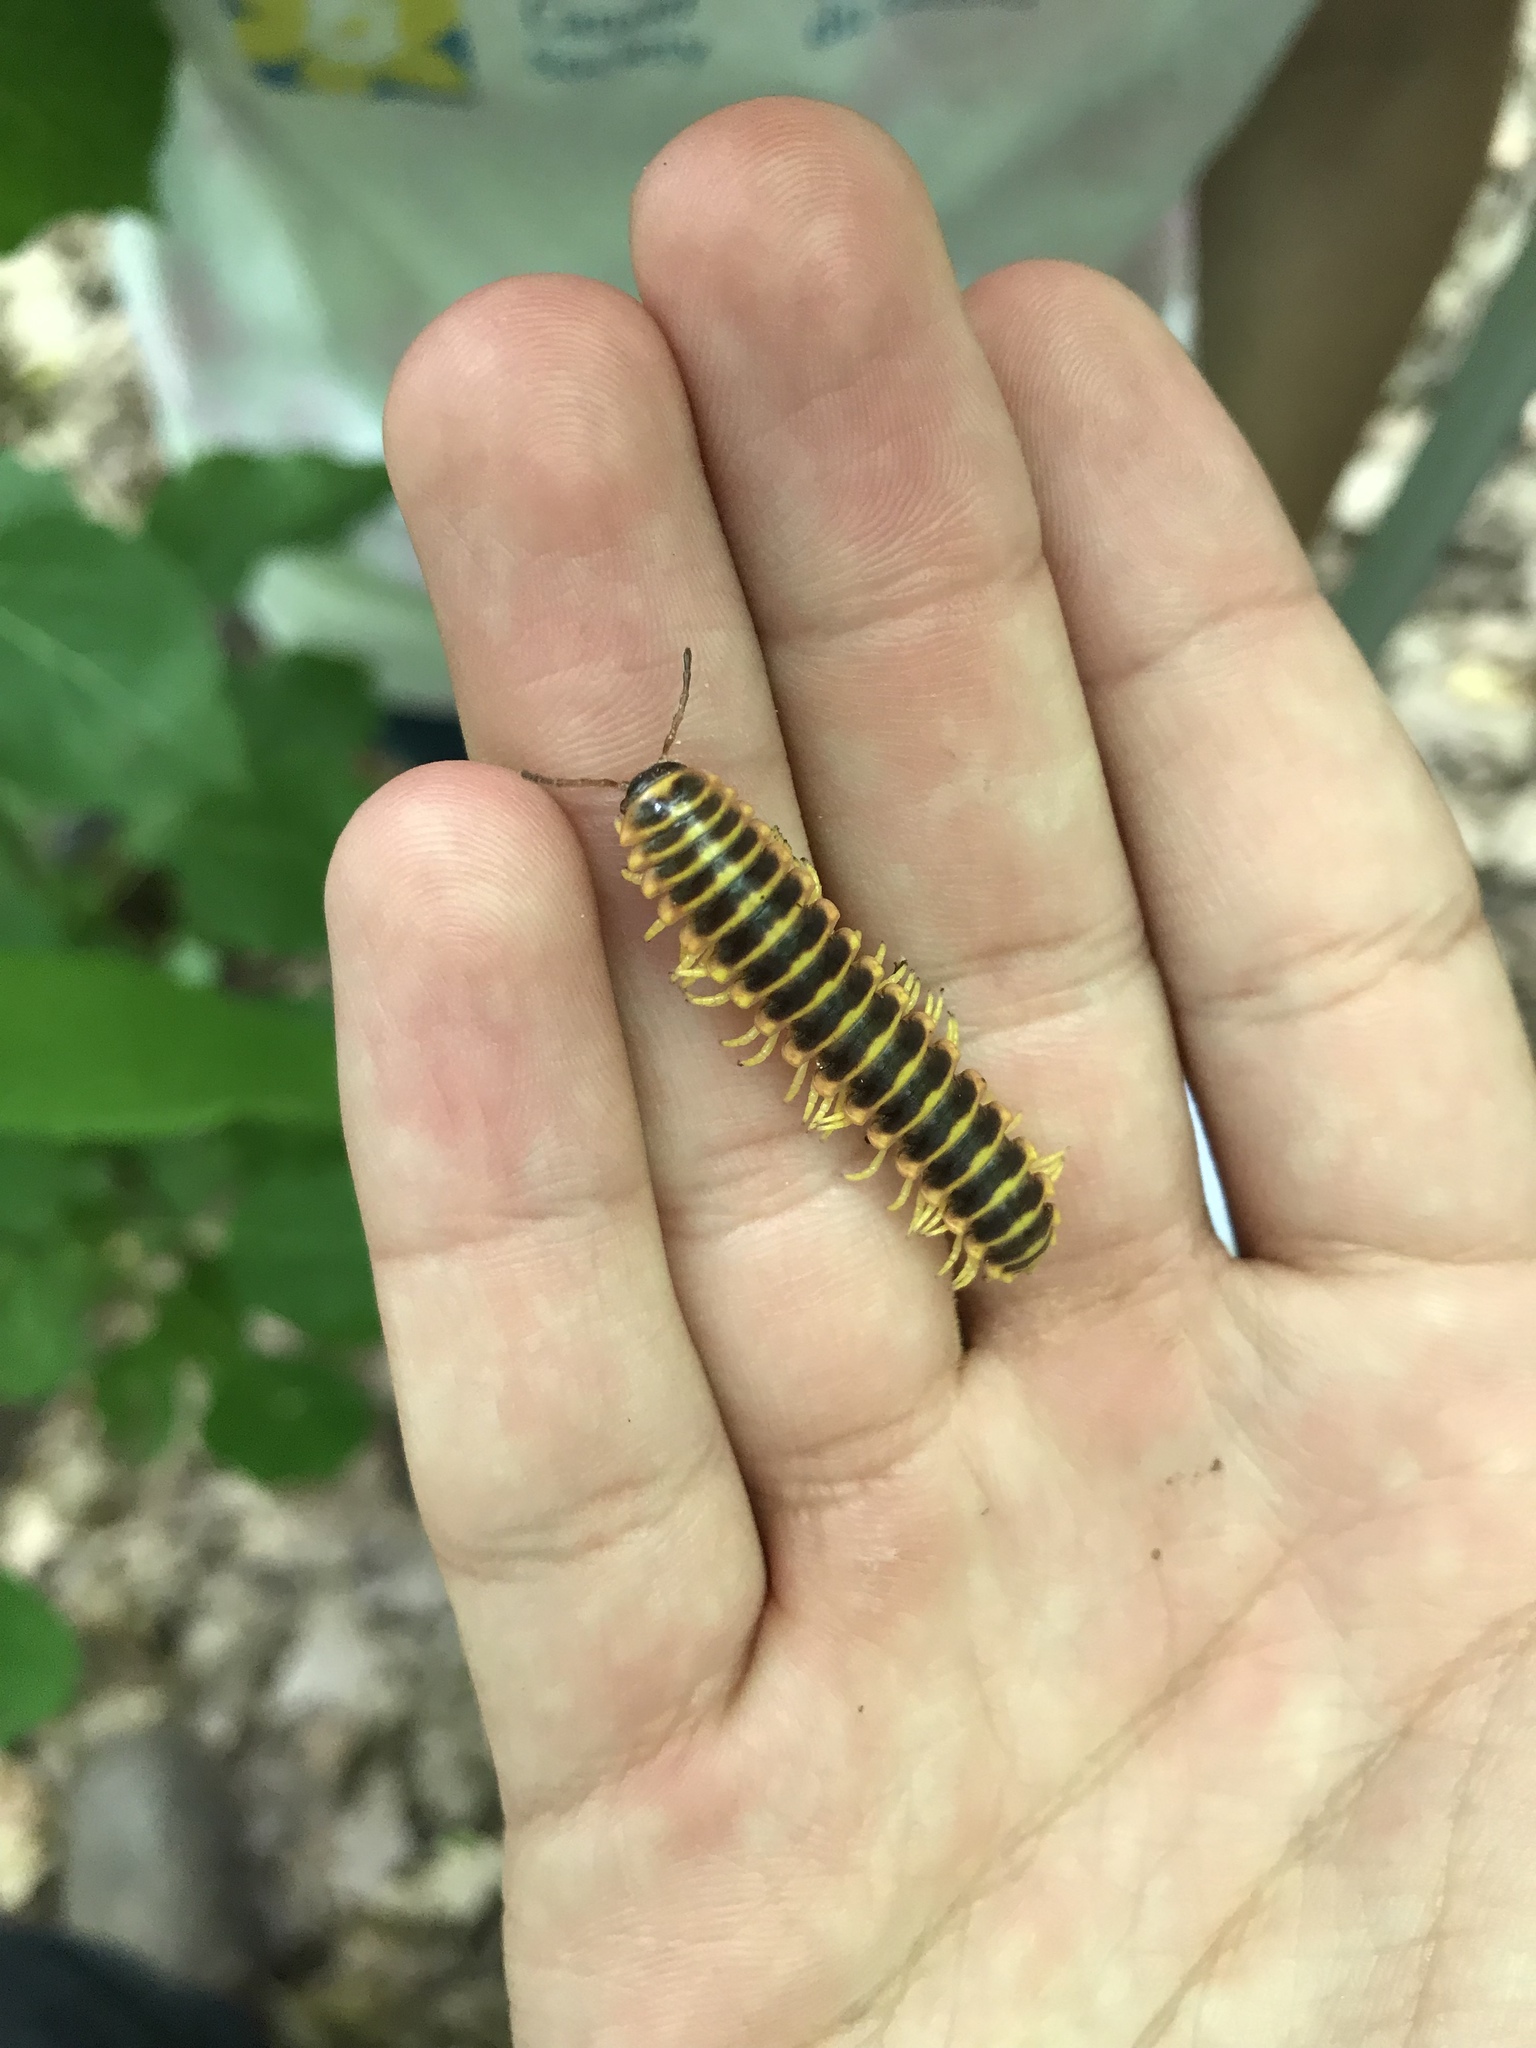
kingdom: Animalia
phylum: Arthropoda
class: Diplopoda
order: Polydesmida
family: Xystodesmidae
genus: Apheloria
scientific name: Apheloria virginiensis
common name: Black-and-gold flat millipede
